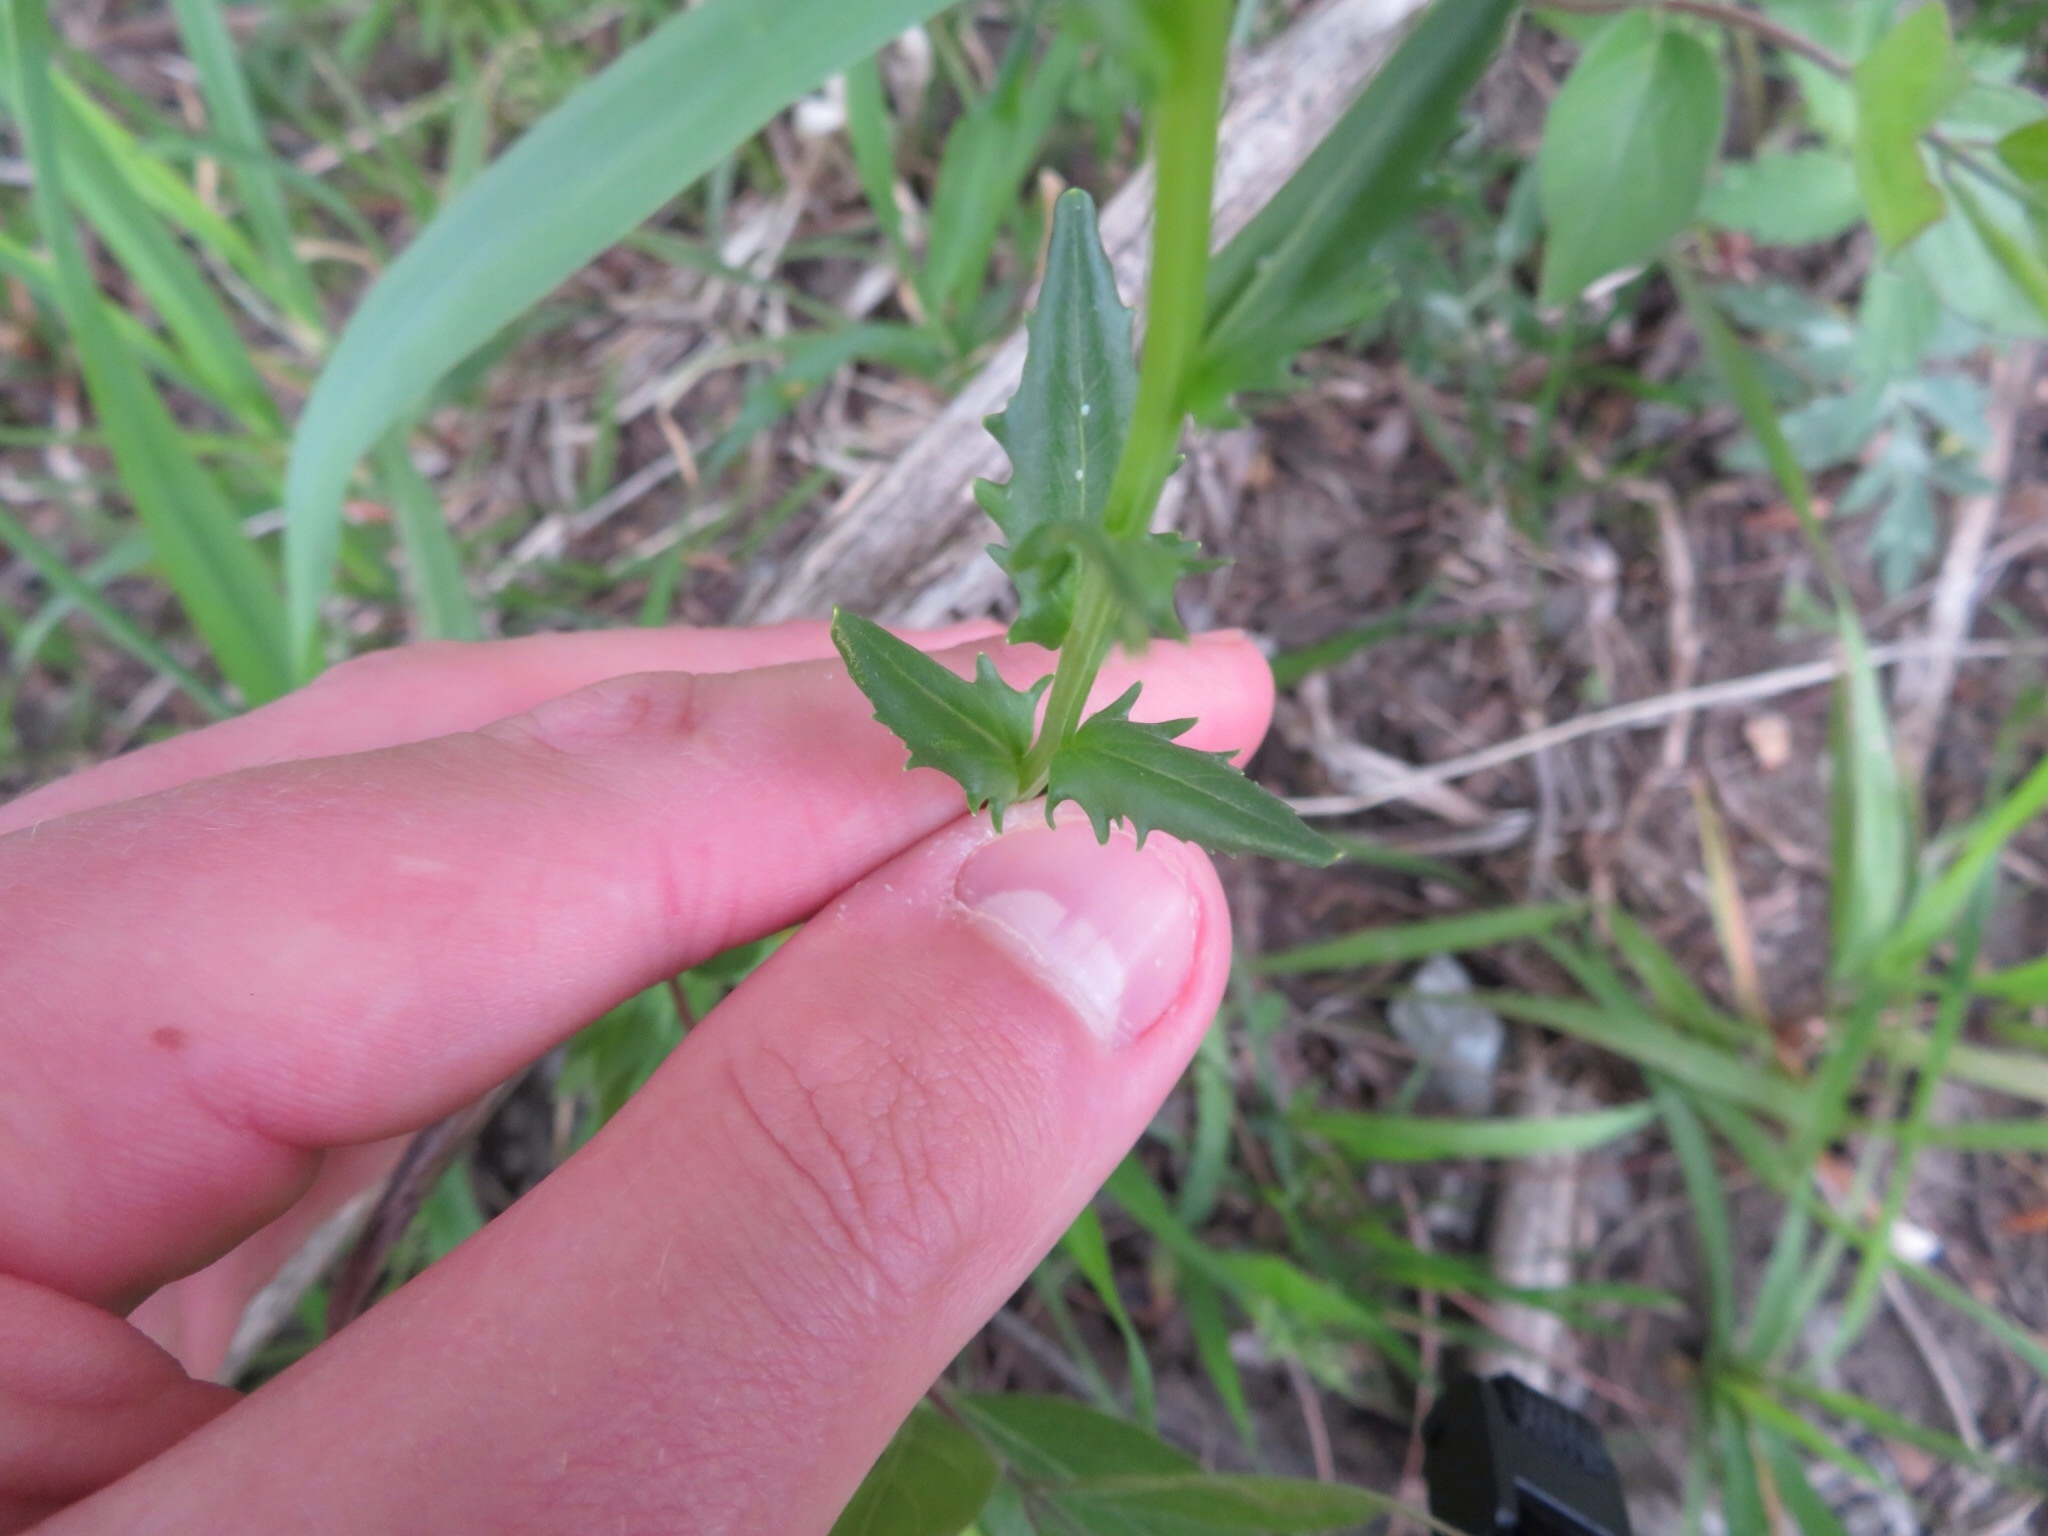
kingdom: Plantae
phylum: Tracheophyta
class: Magnoliopsida
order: Brassicales
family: Brassicaceae
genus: Thlaspi
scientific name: Thlaspi arvense
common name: Field pennycress
